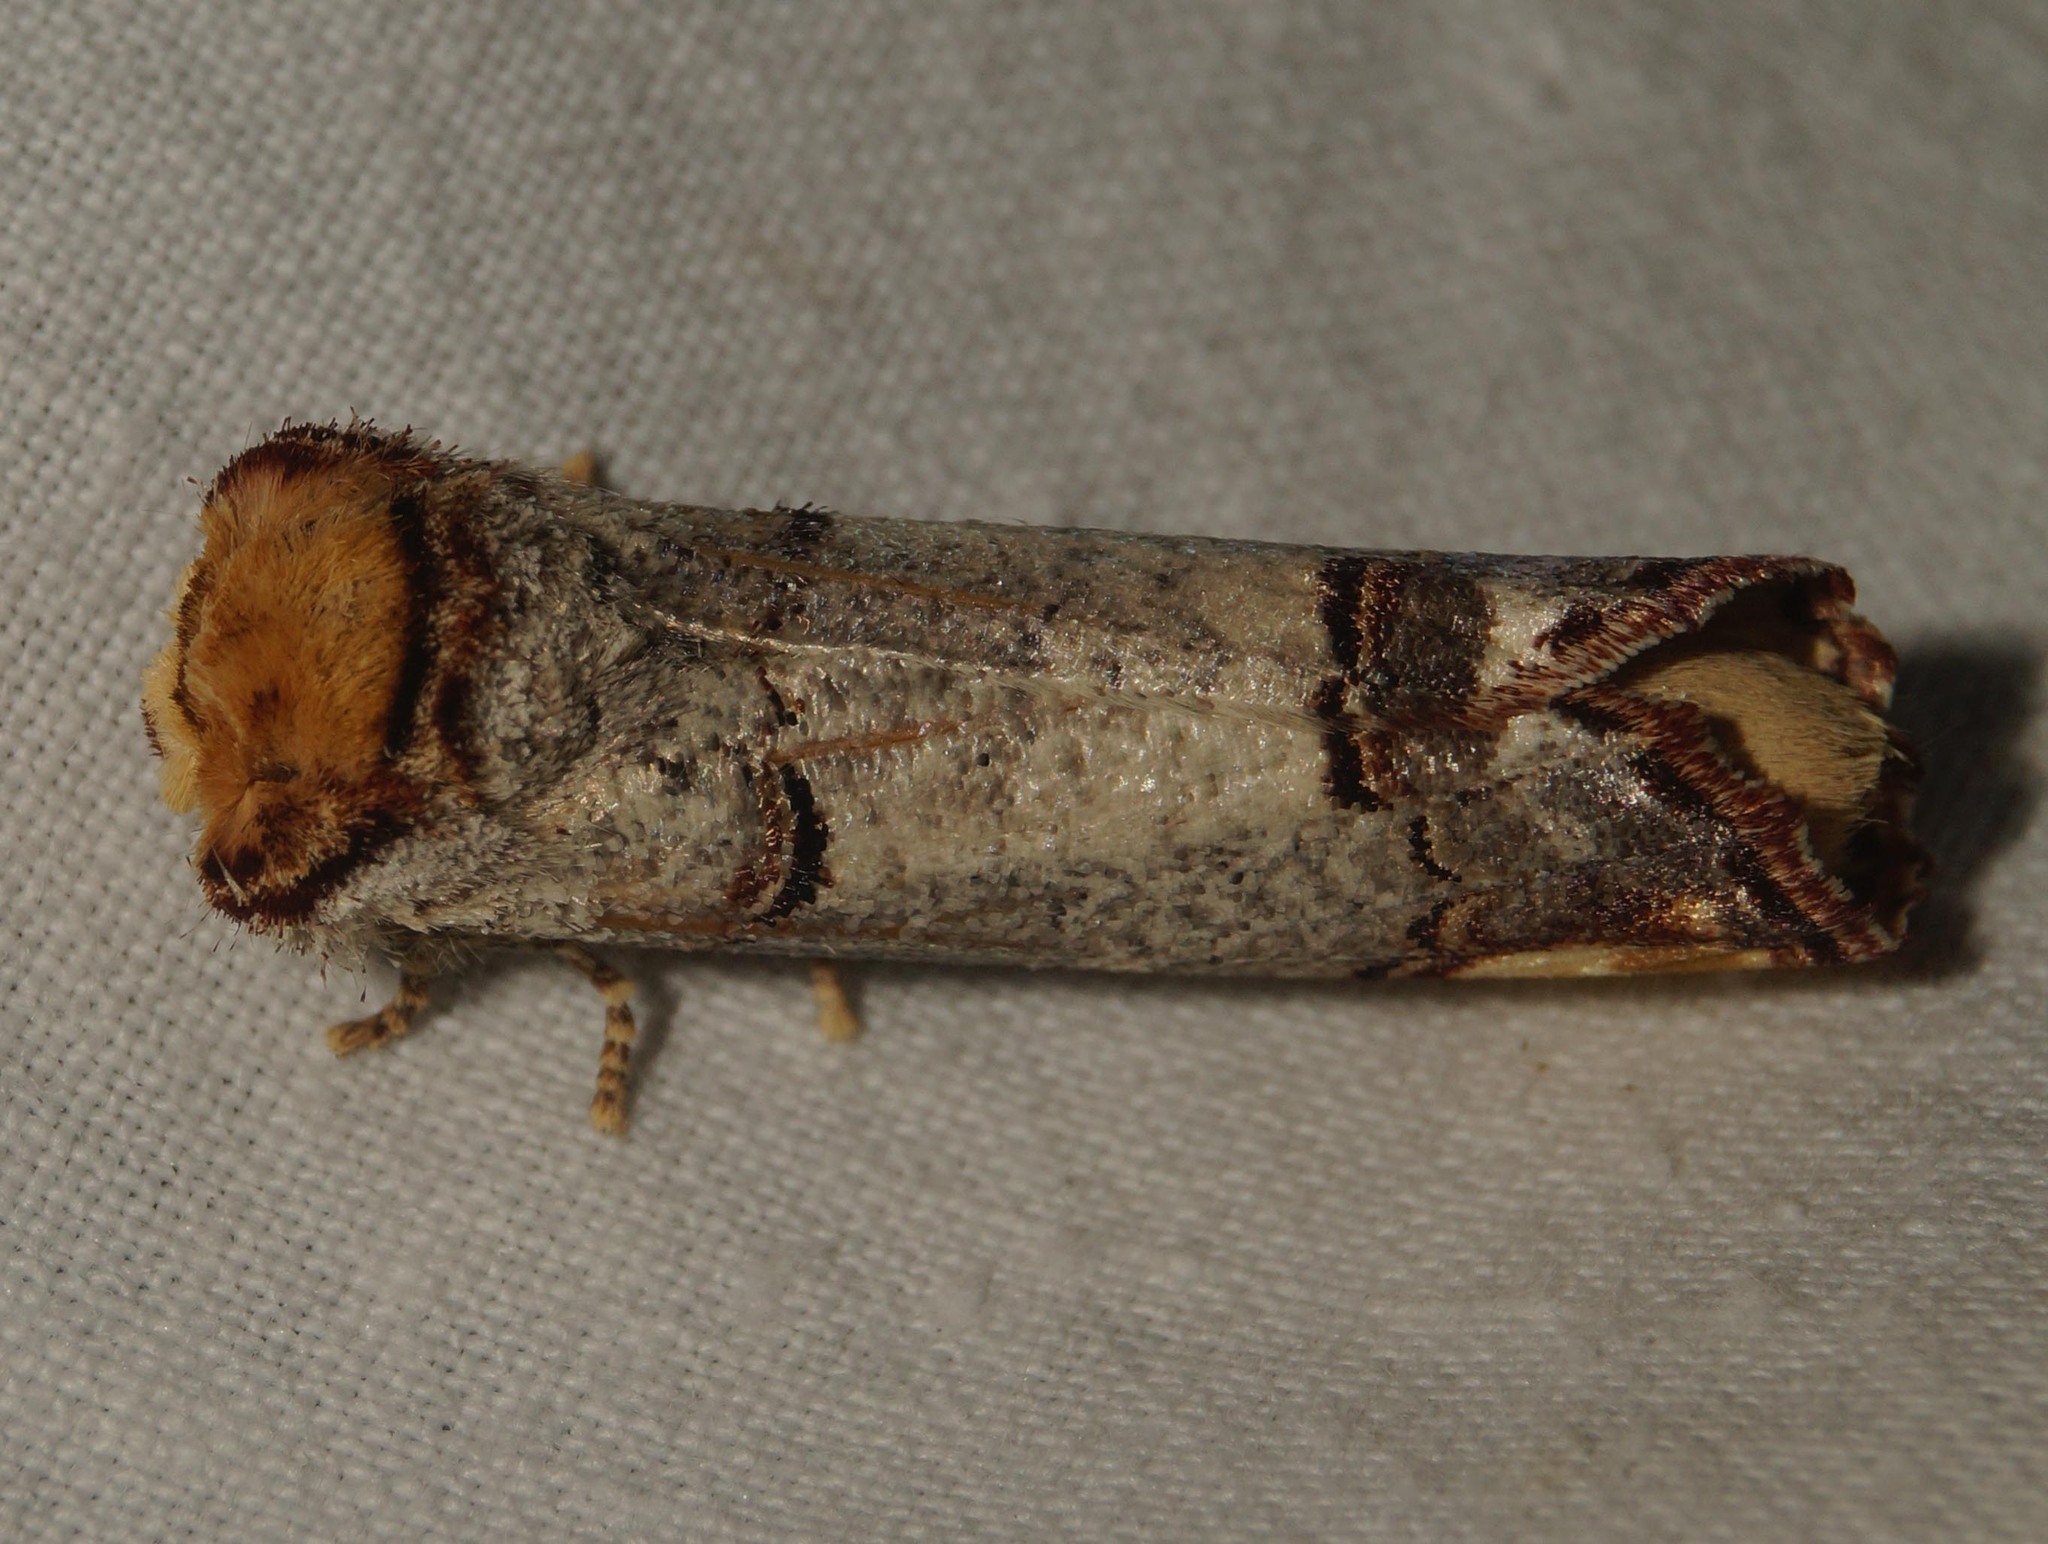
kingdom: Animalia
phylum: Arthropoda
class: Insecta
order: Lepidoptera
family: Notodontidae
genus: Phalera
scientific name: Phalera bucephala
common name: Buff-tip
